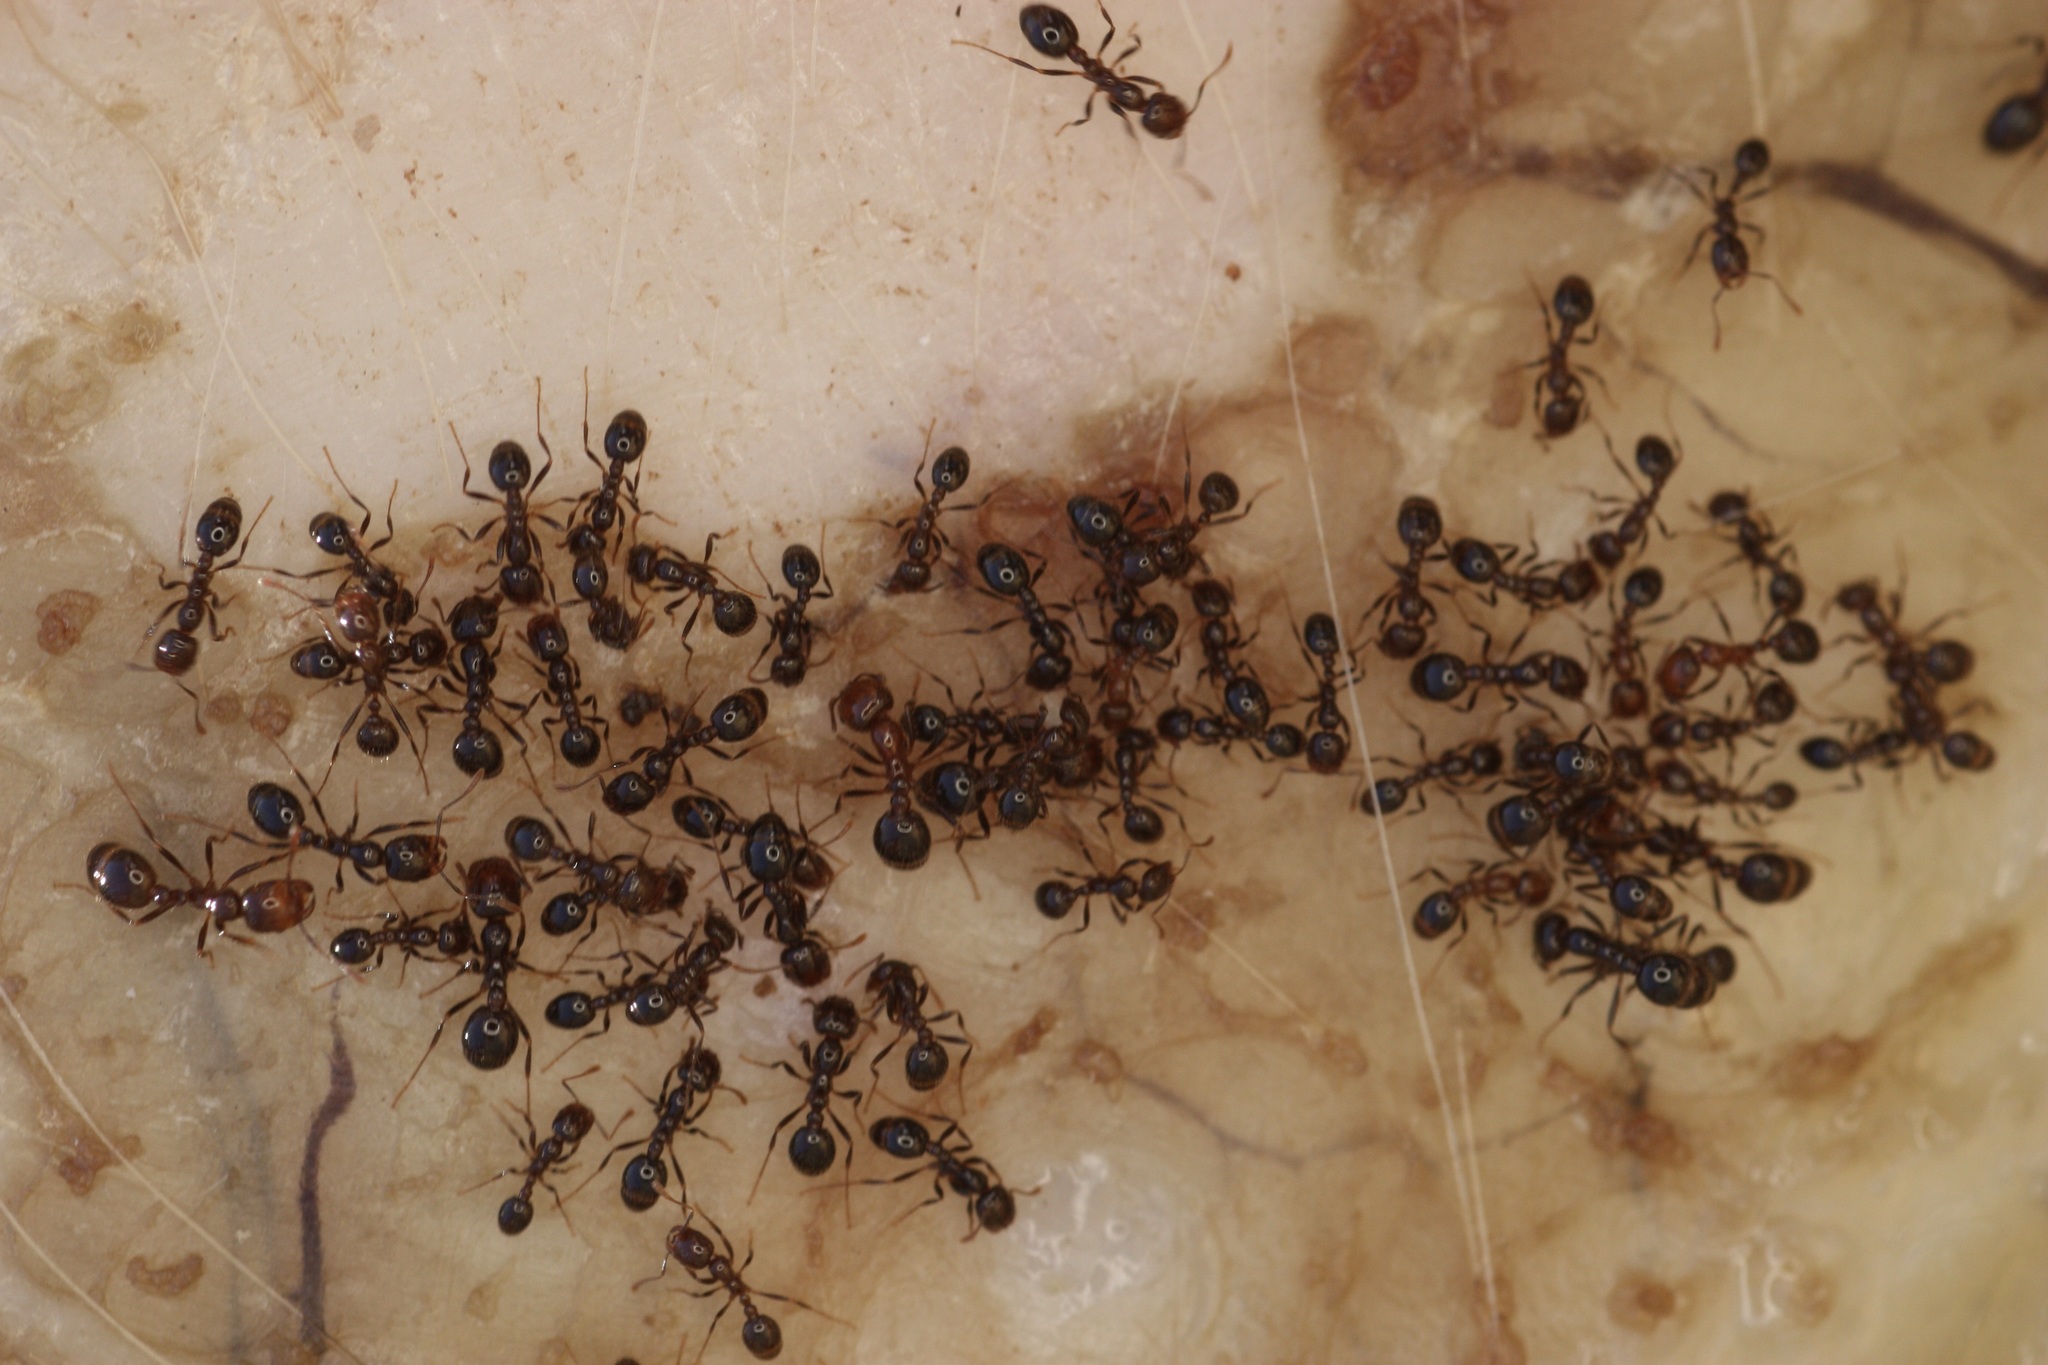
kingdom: Animalia
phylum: Arthropoda
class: Insecta
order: Hymenoptera
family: Formicidae
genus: Solenopsis
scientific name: Solenopsis xyloni
